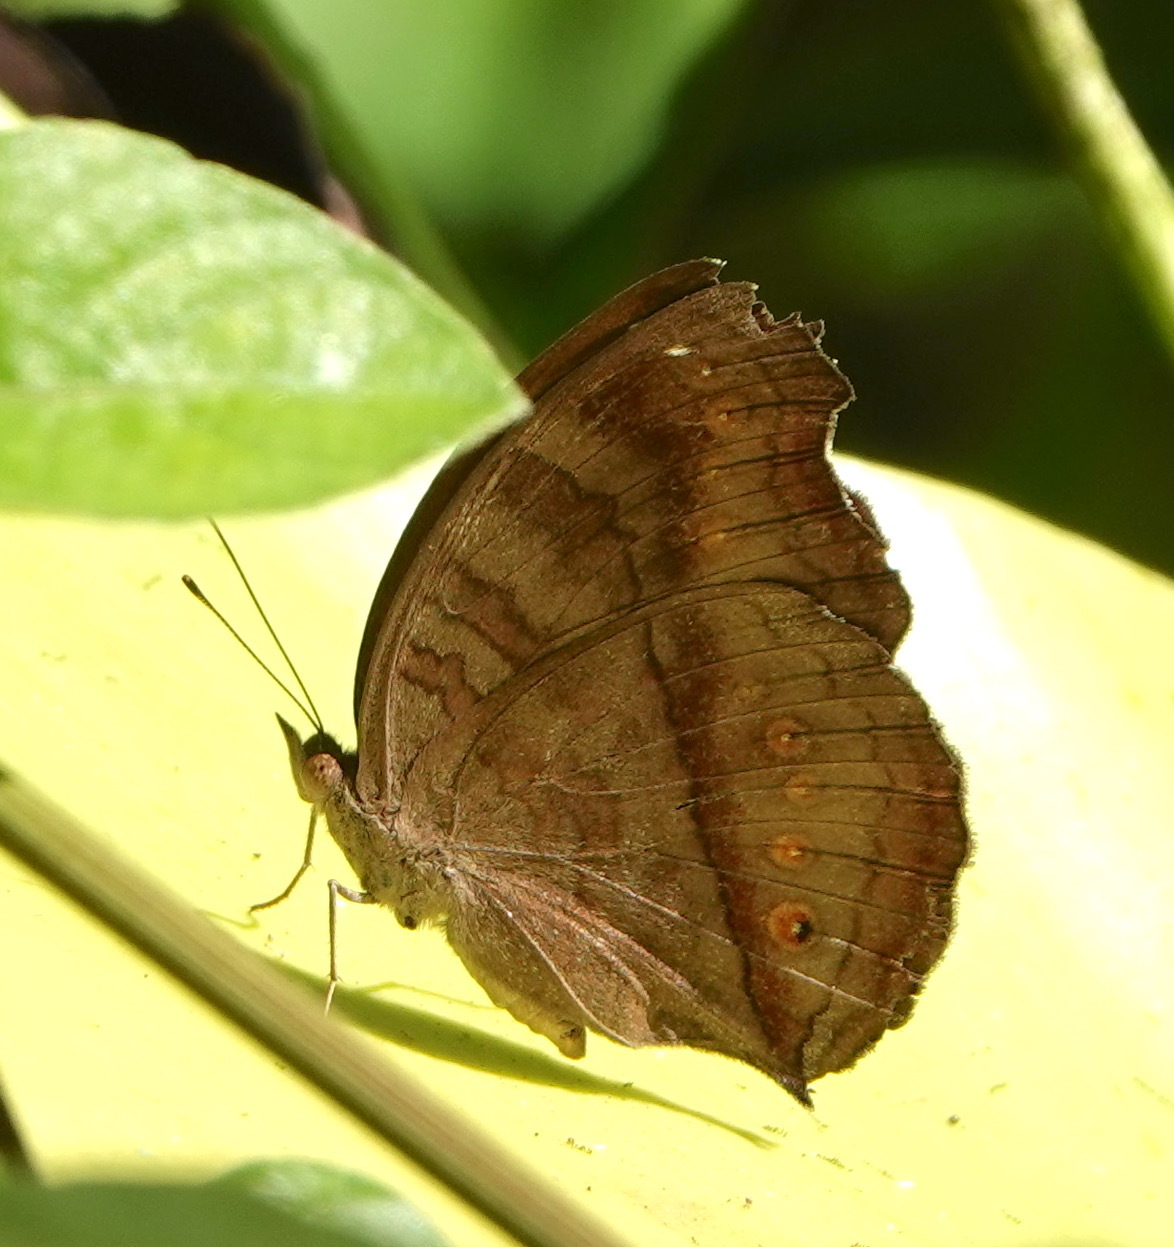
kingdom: Animalia
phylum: Arthropoda
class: Insecta
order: Lepidoptera
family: Nymphalidae
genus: Junonia
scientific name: Junonia hedonia
